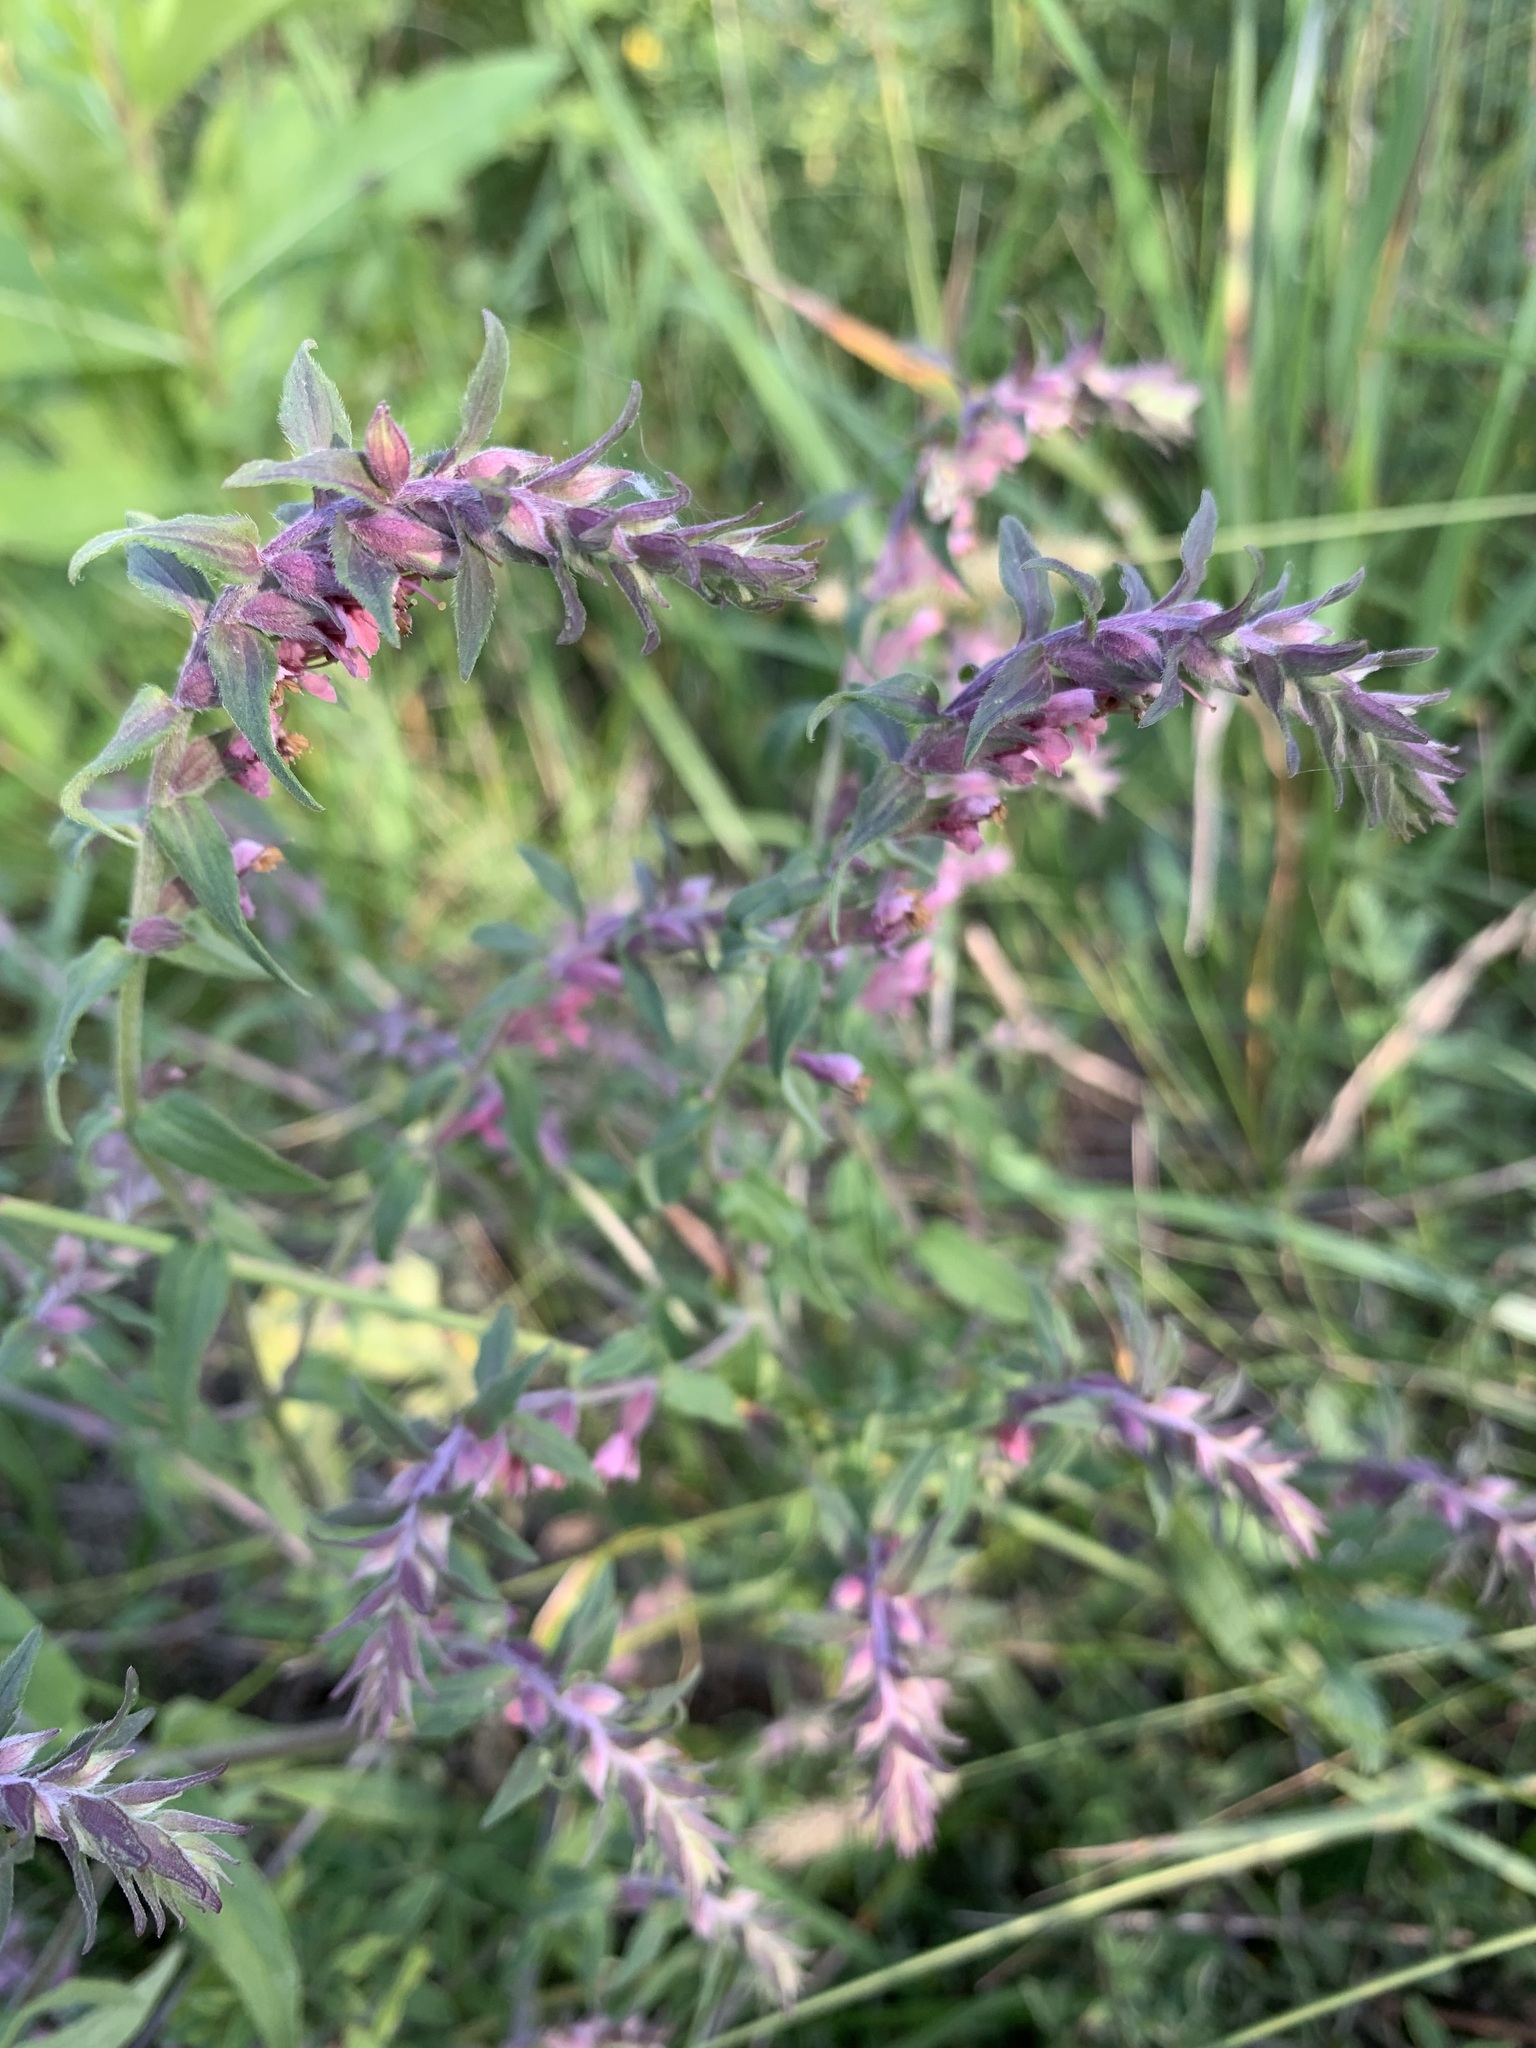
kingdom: Plantae
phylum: Tracheophyta
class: Magnoliopsida
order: Lamiales
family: Orobanchaceae
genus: Odontites
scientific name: Odontites vulgaris
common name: Broomrape
